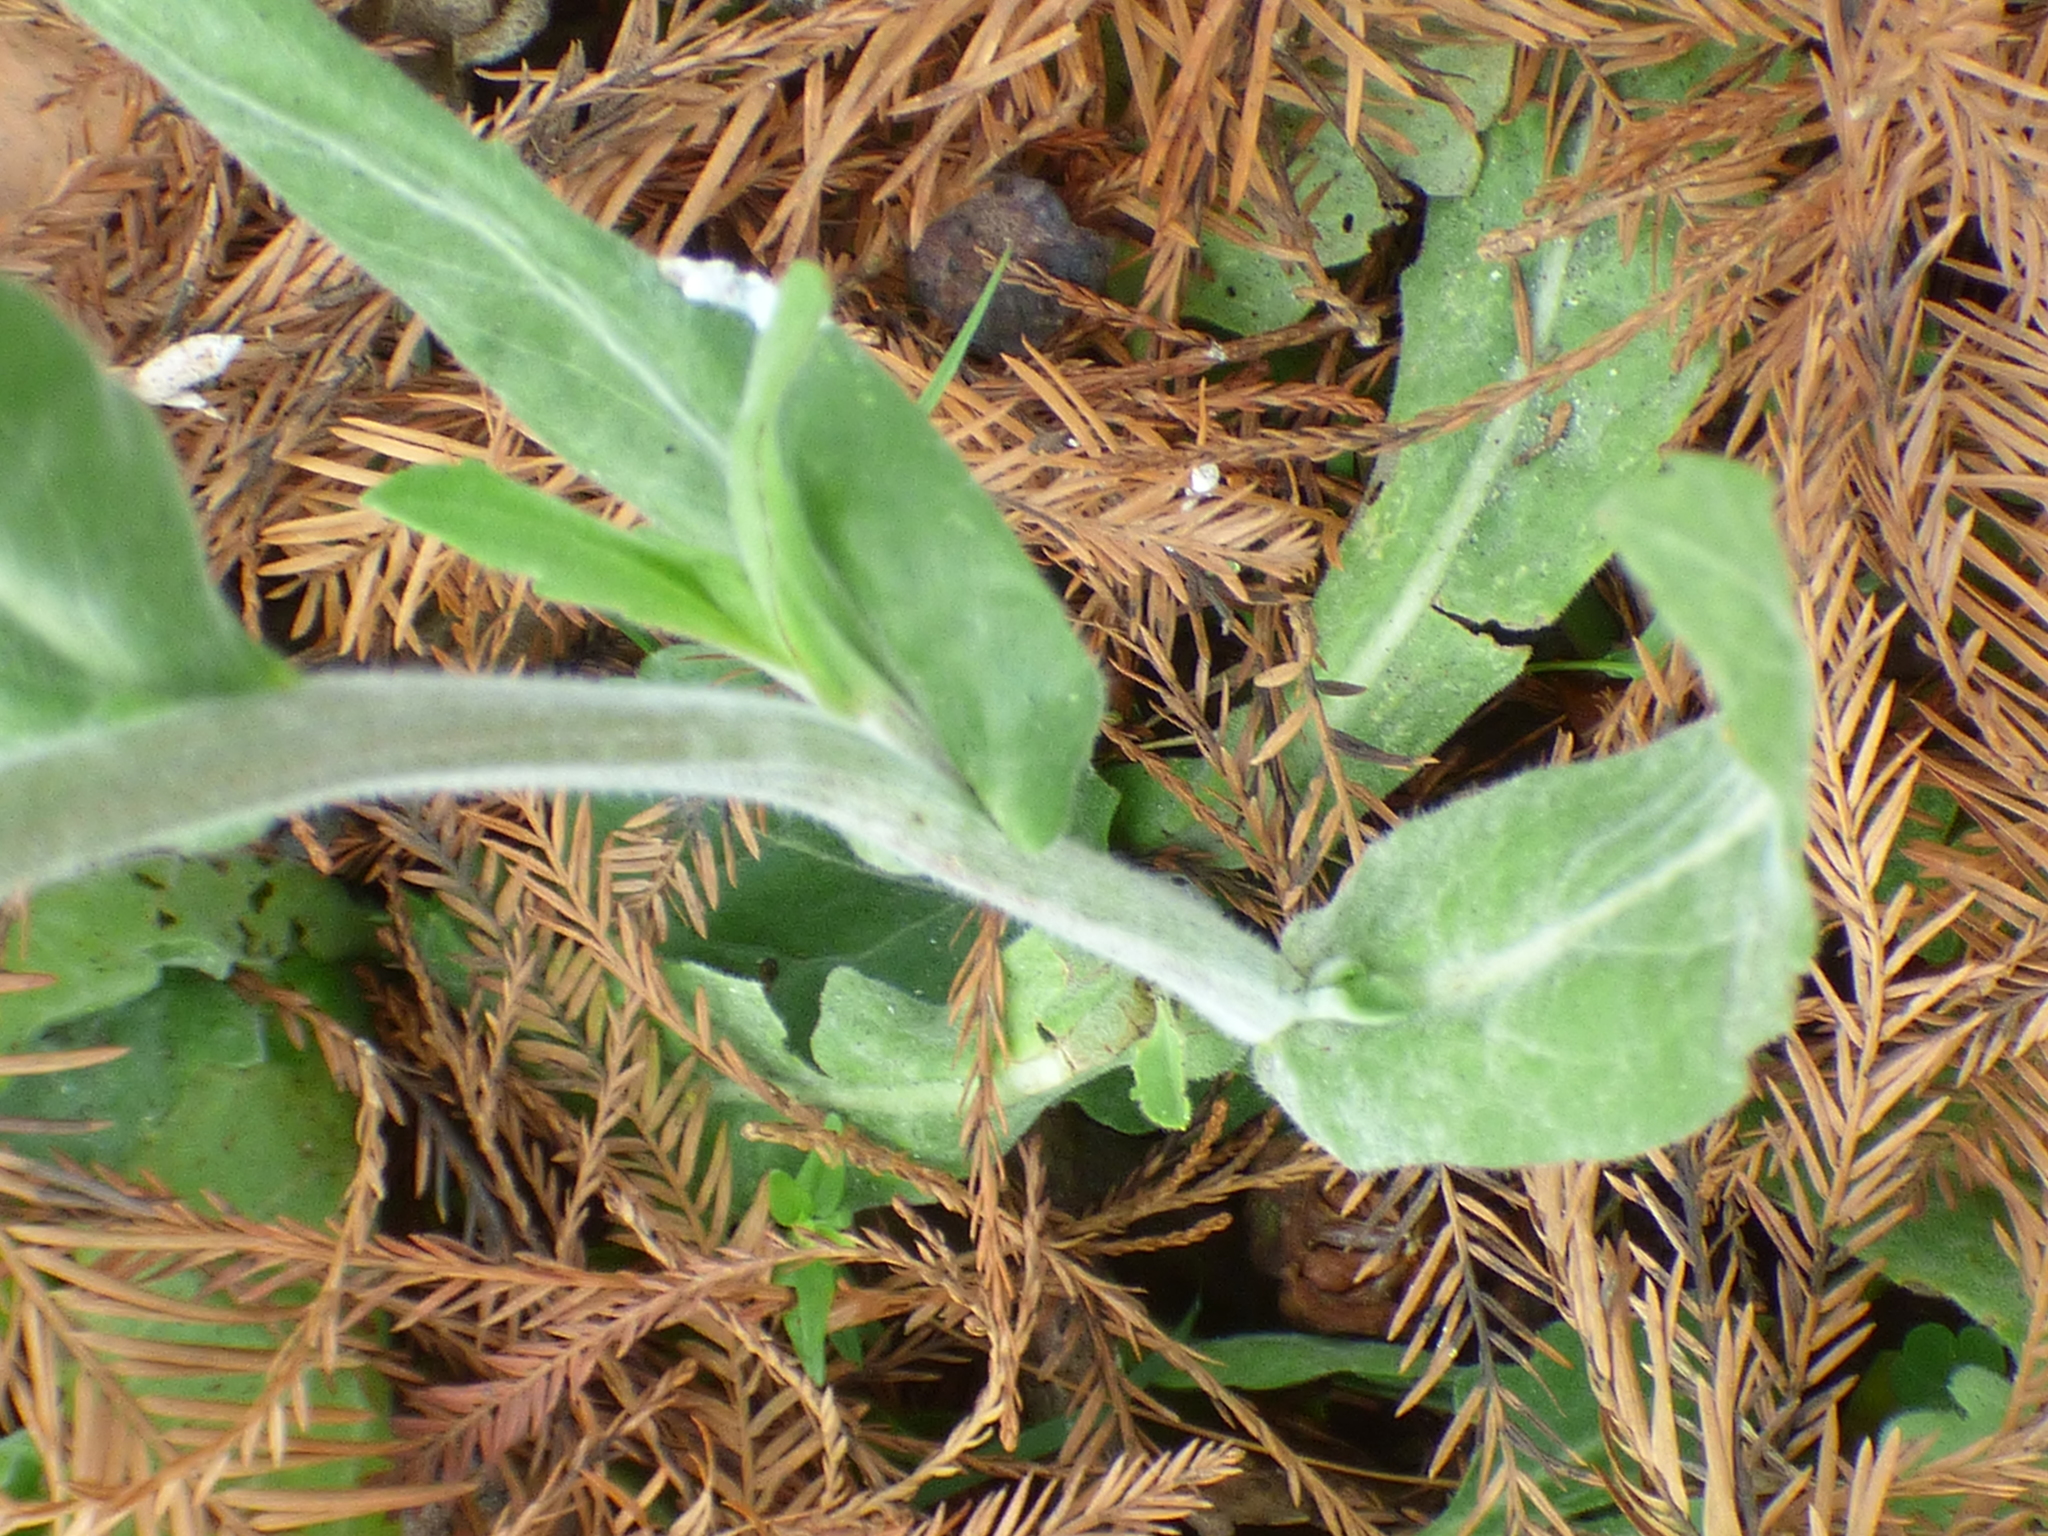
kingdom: Plantae
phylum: Tracheophyta
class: Magnoliopsida
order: Asterales
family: Asteraceae
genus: Erigeron
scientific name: Erigeron quercifolius
